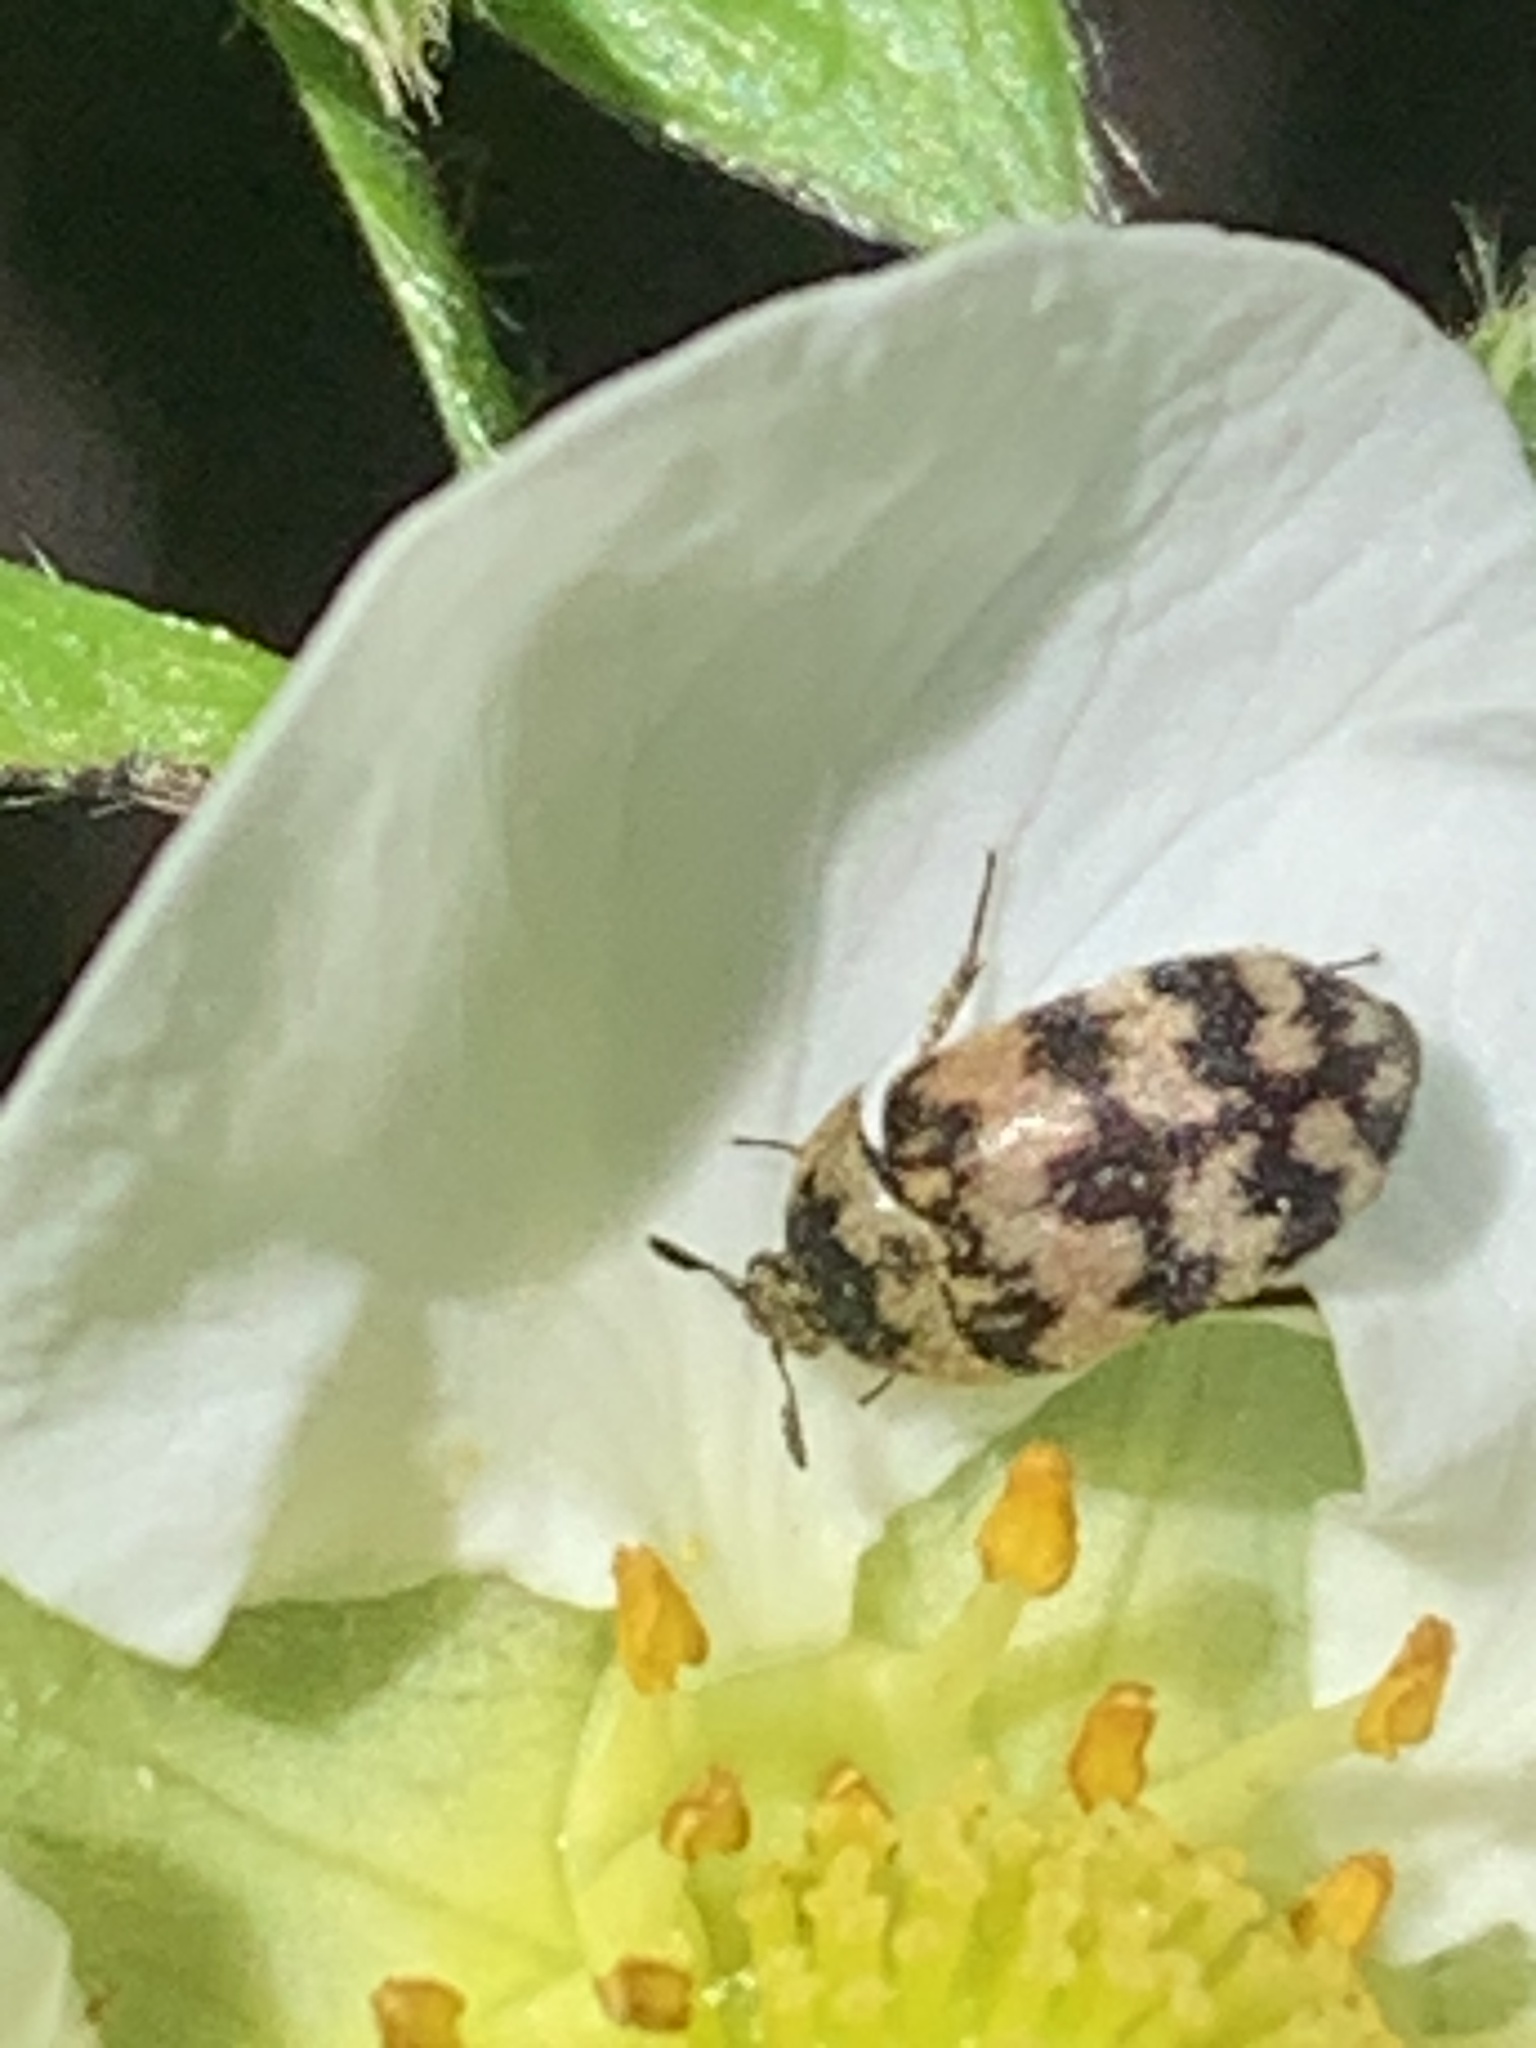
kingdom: Animalia
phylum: Arthropoda
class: Insecta
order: Coleoptera
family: Dermestidae
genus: Attagenus
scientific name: Attagenus trifasciatus
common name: Carpet beetle
